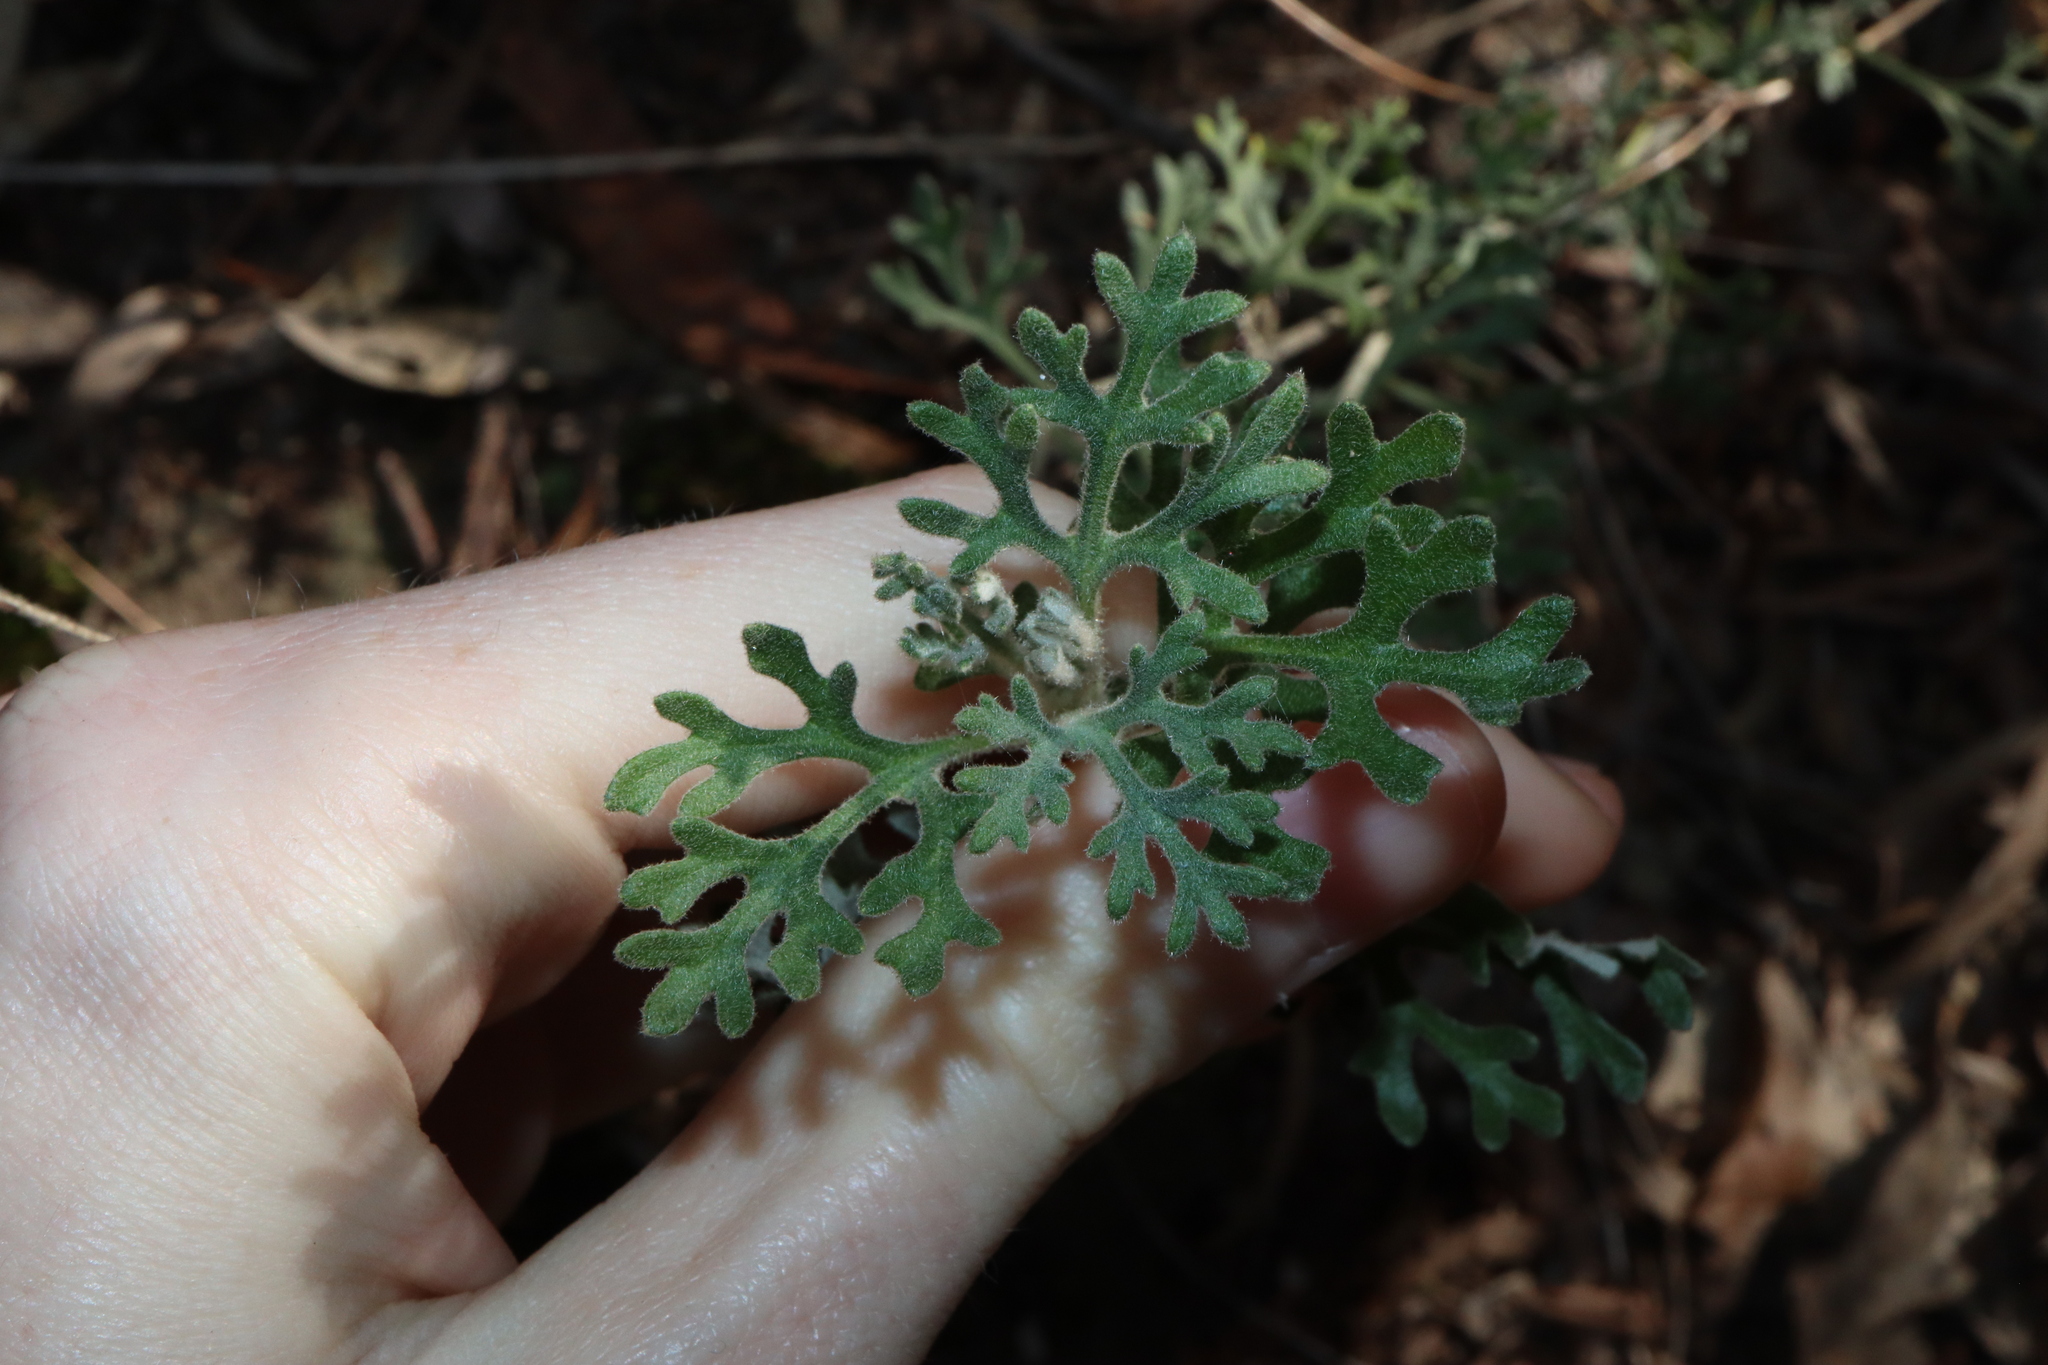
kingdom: Plantae
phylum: Tracheophyta
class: Magnoliopsida
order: Apiales
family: Apiaceae
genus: Actinotus
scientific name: Actinotus helianthi
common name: Flannel-flower
